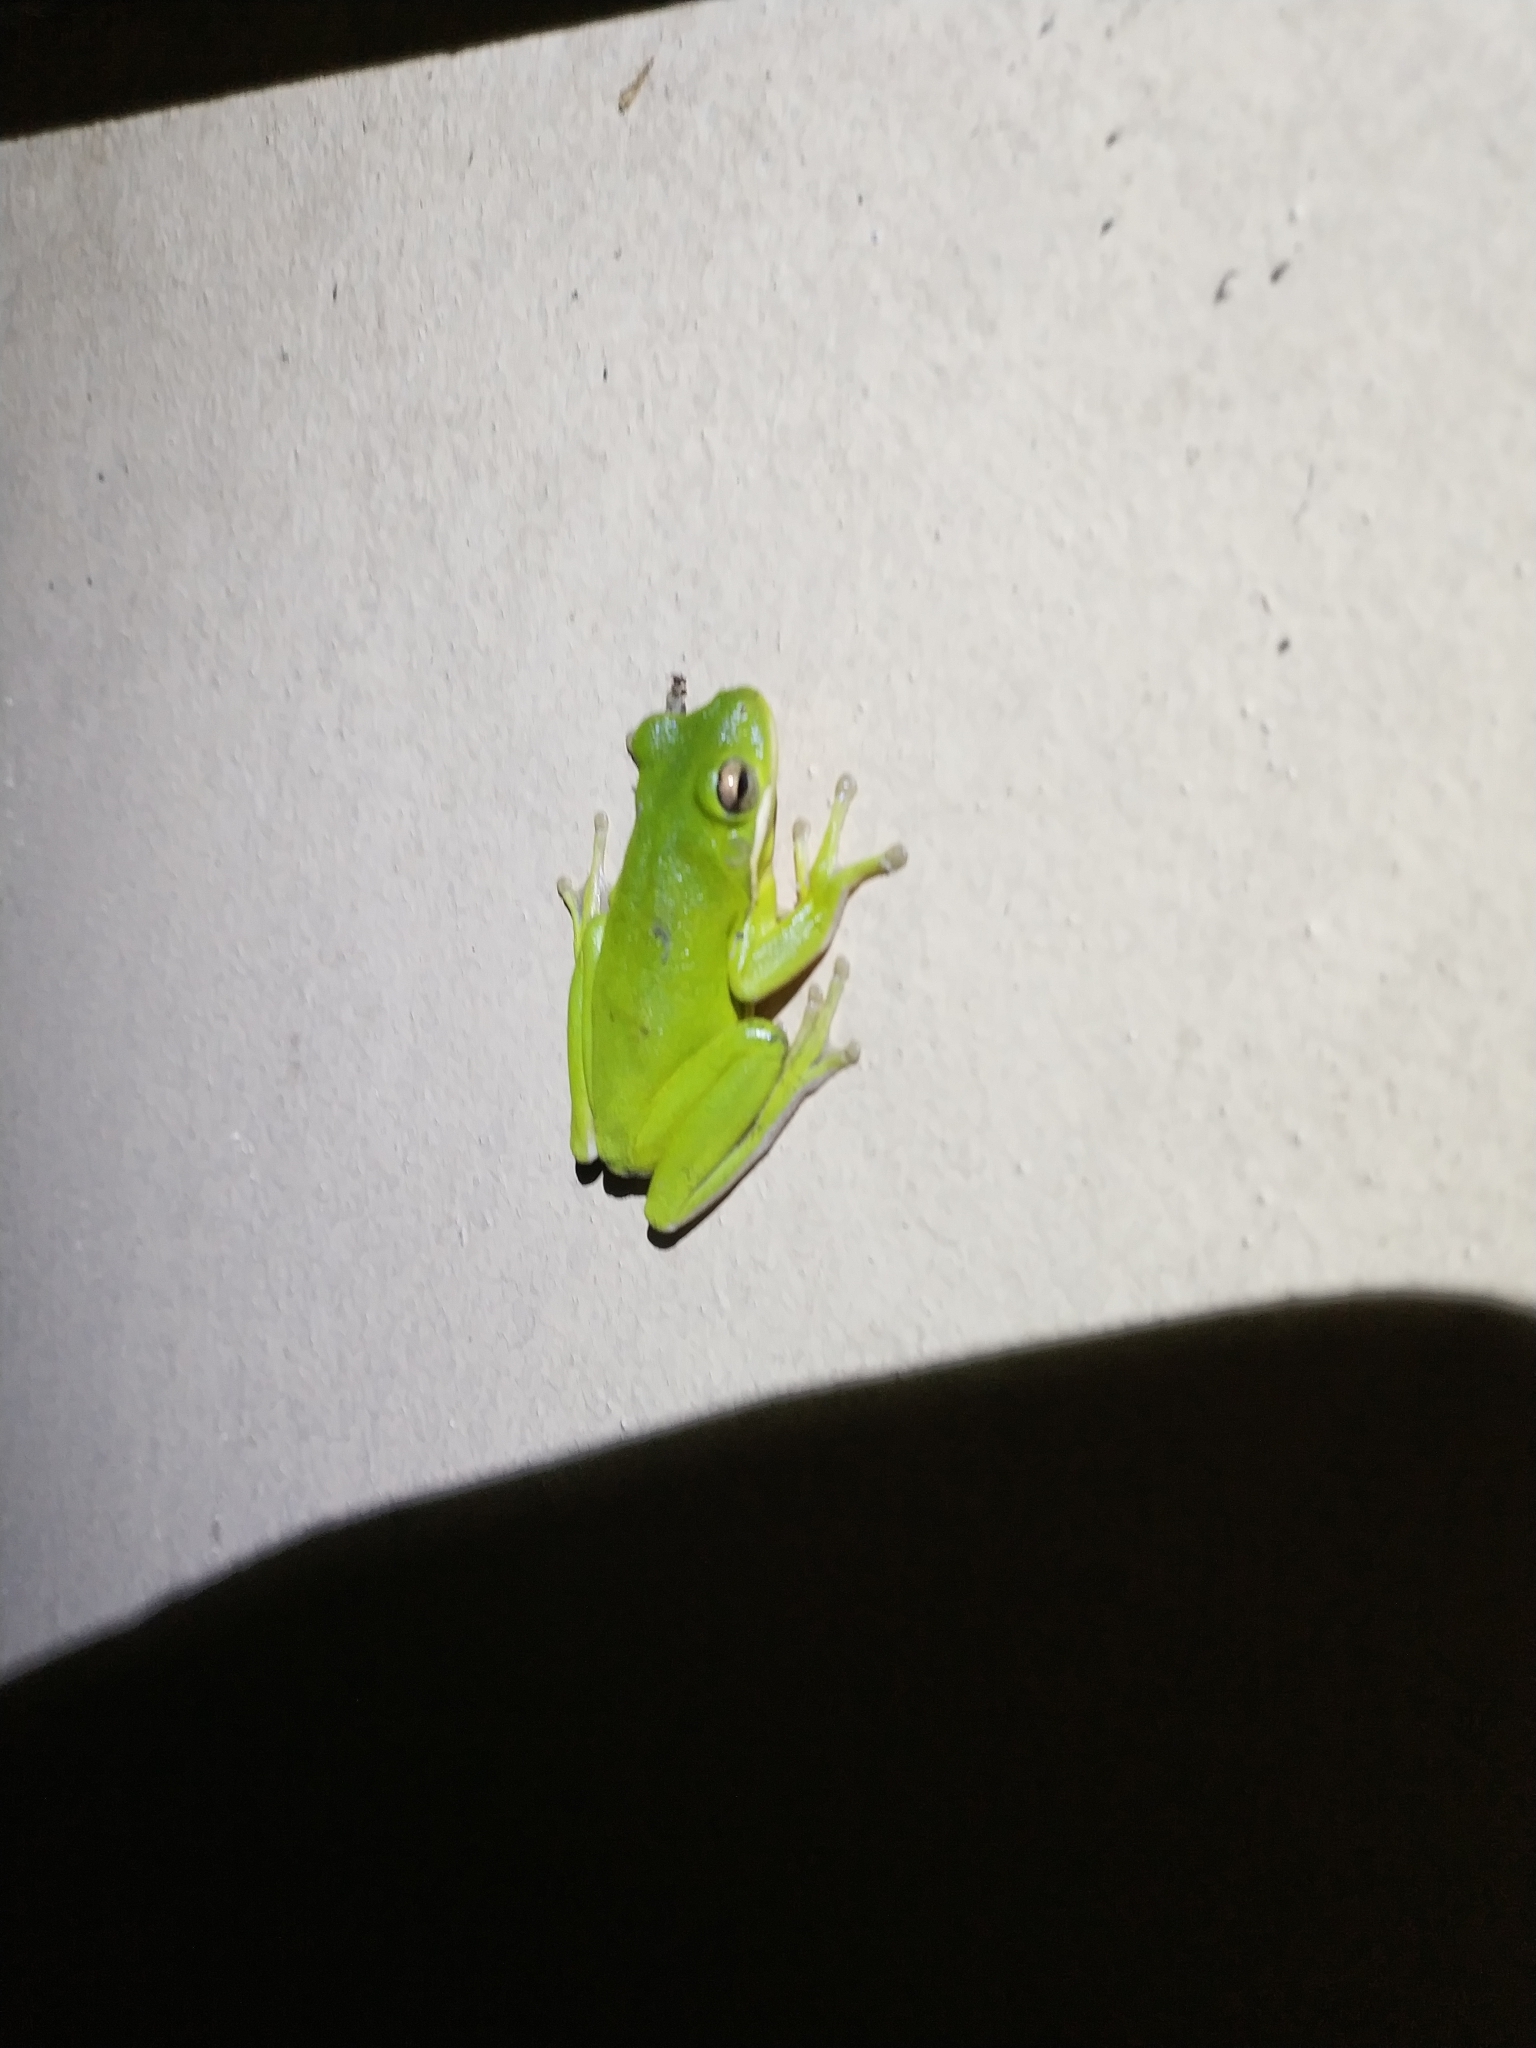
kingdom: Animalia
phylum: Chordata
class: Amphibia
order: Anura
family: Hylidae
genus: Dryophytes
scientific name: Dryophytes cinereus
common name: Green treefrog
